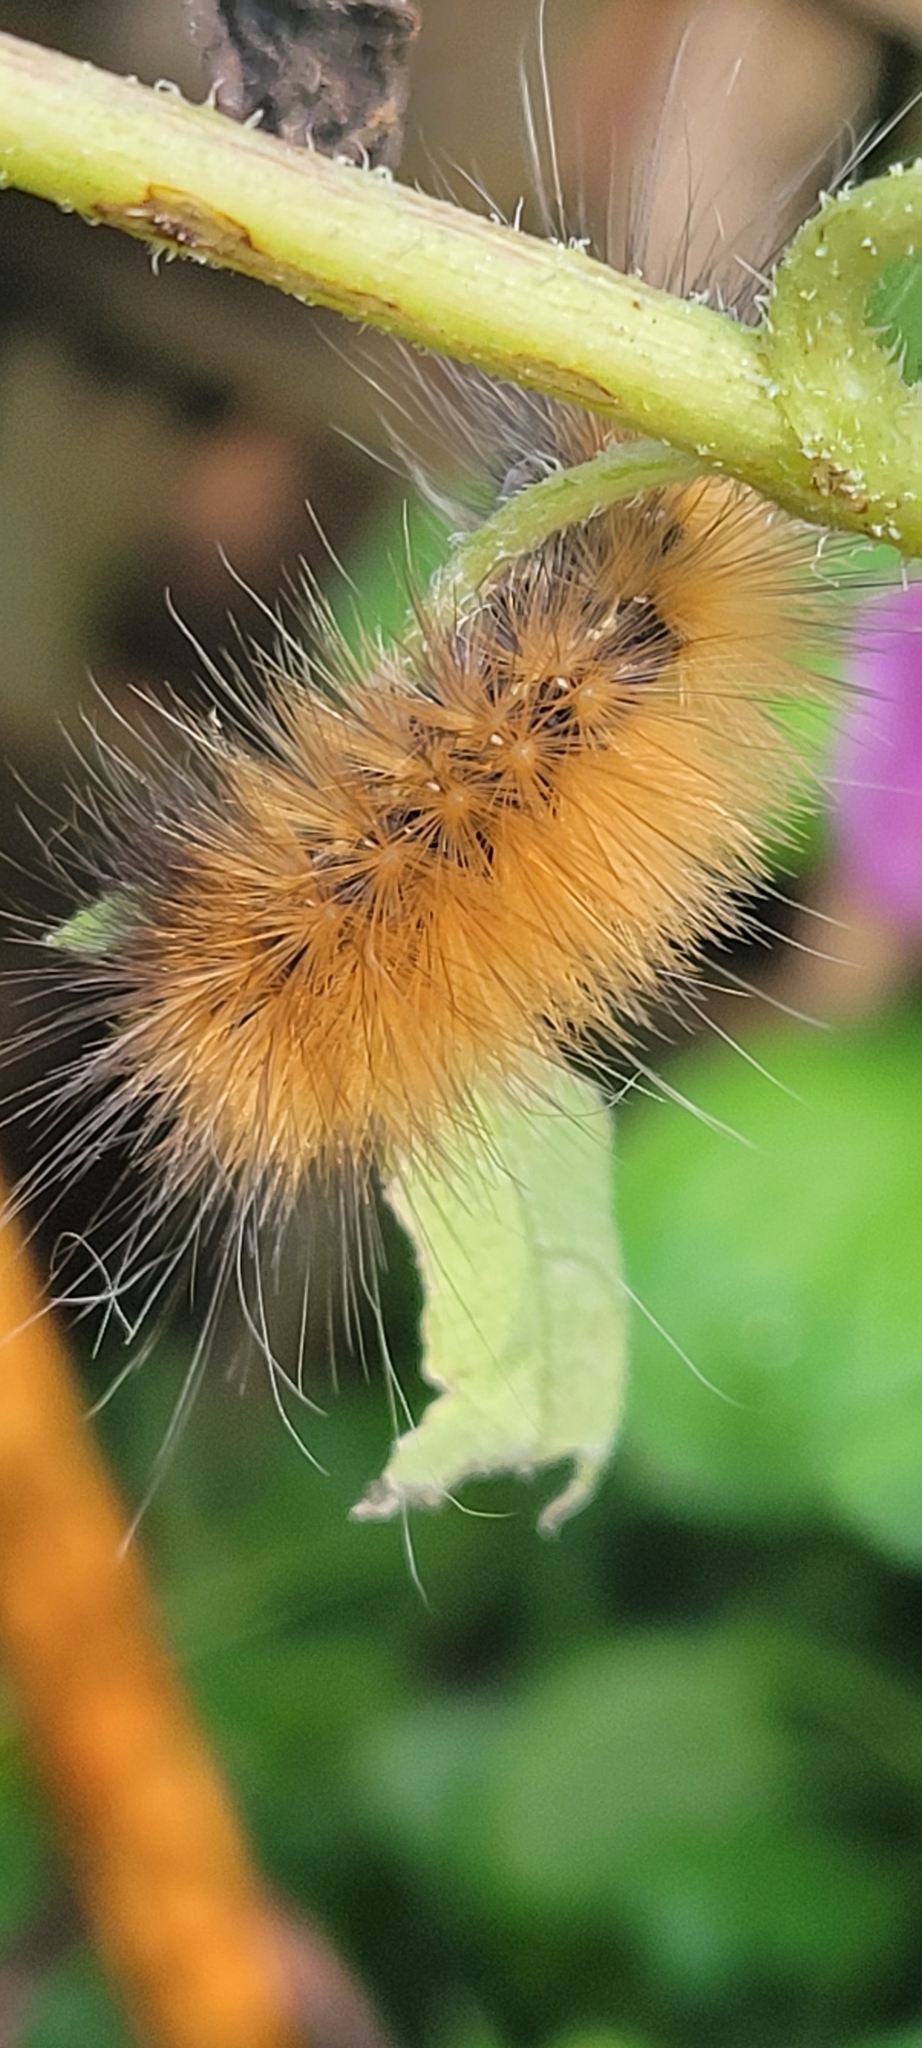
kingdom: Animalia
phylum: Arthropoda
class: Insecta
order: Lepidoptera
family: Erebidae
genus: Spilosoma
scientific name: Spilosoma virginica
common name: Virginia tiger moth
